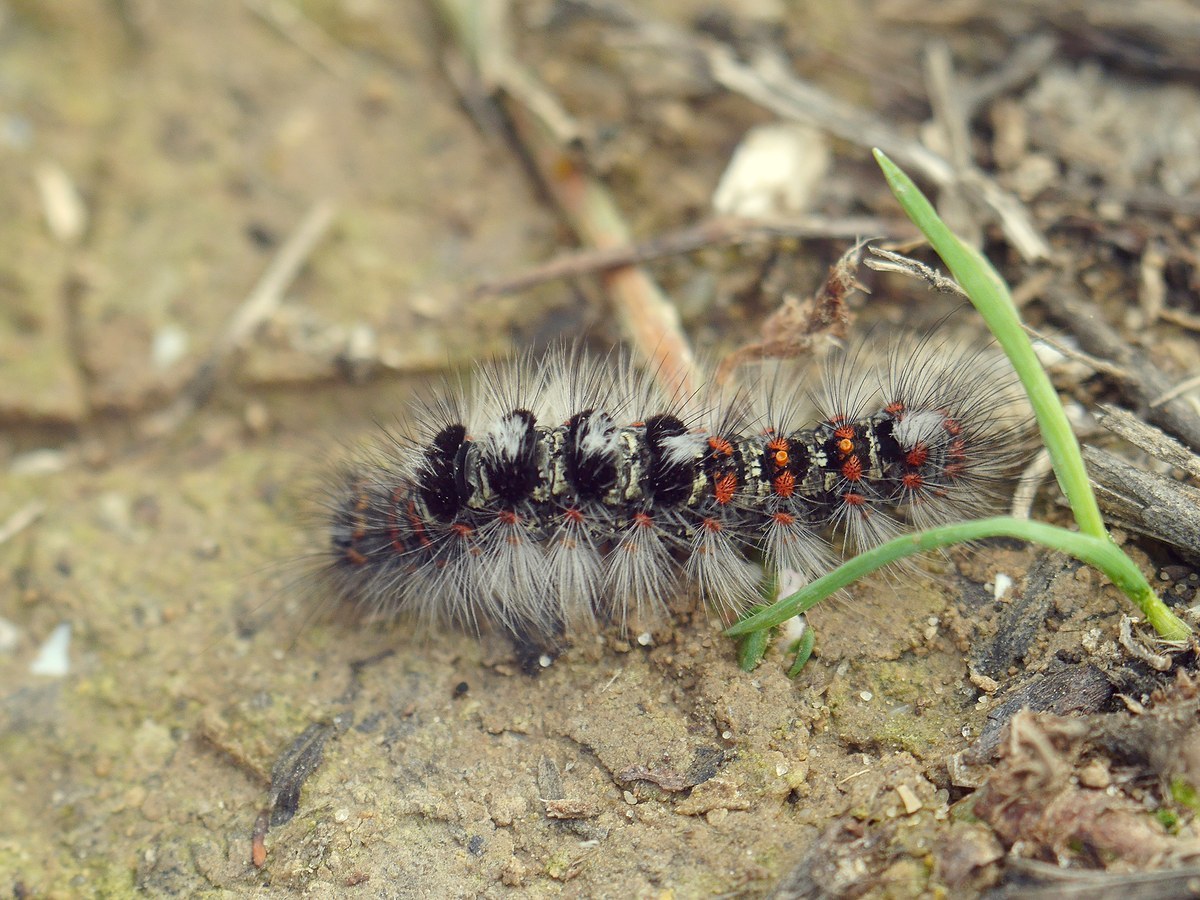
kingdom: Animalia
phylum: Arthropoda
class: Insecta
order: Lepidoptera
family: Erebidae
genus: Orgyia
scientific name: Orgyia dubia
